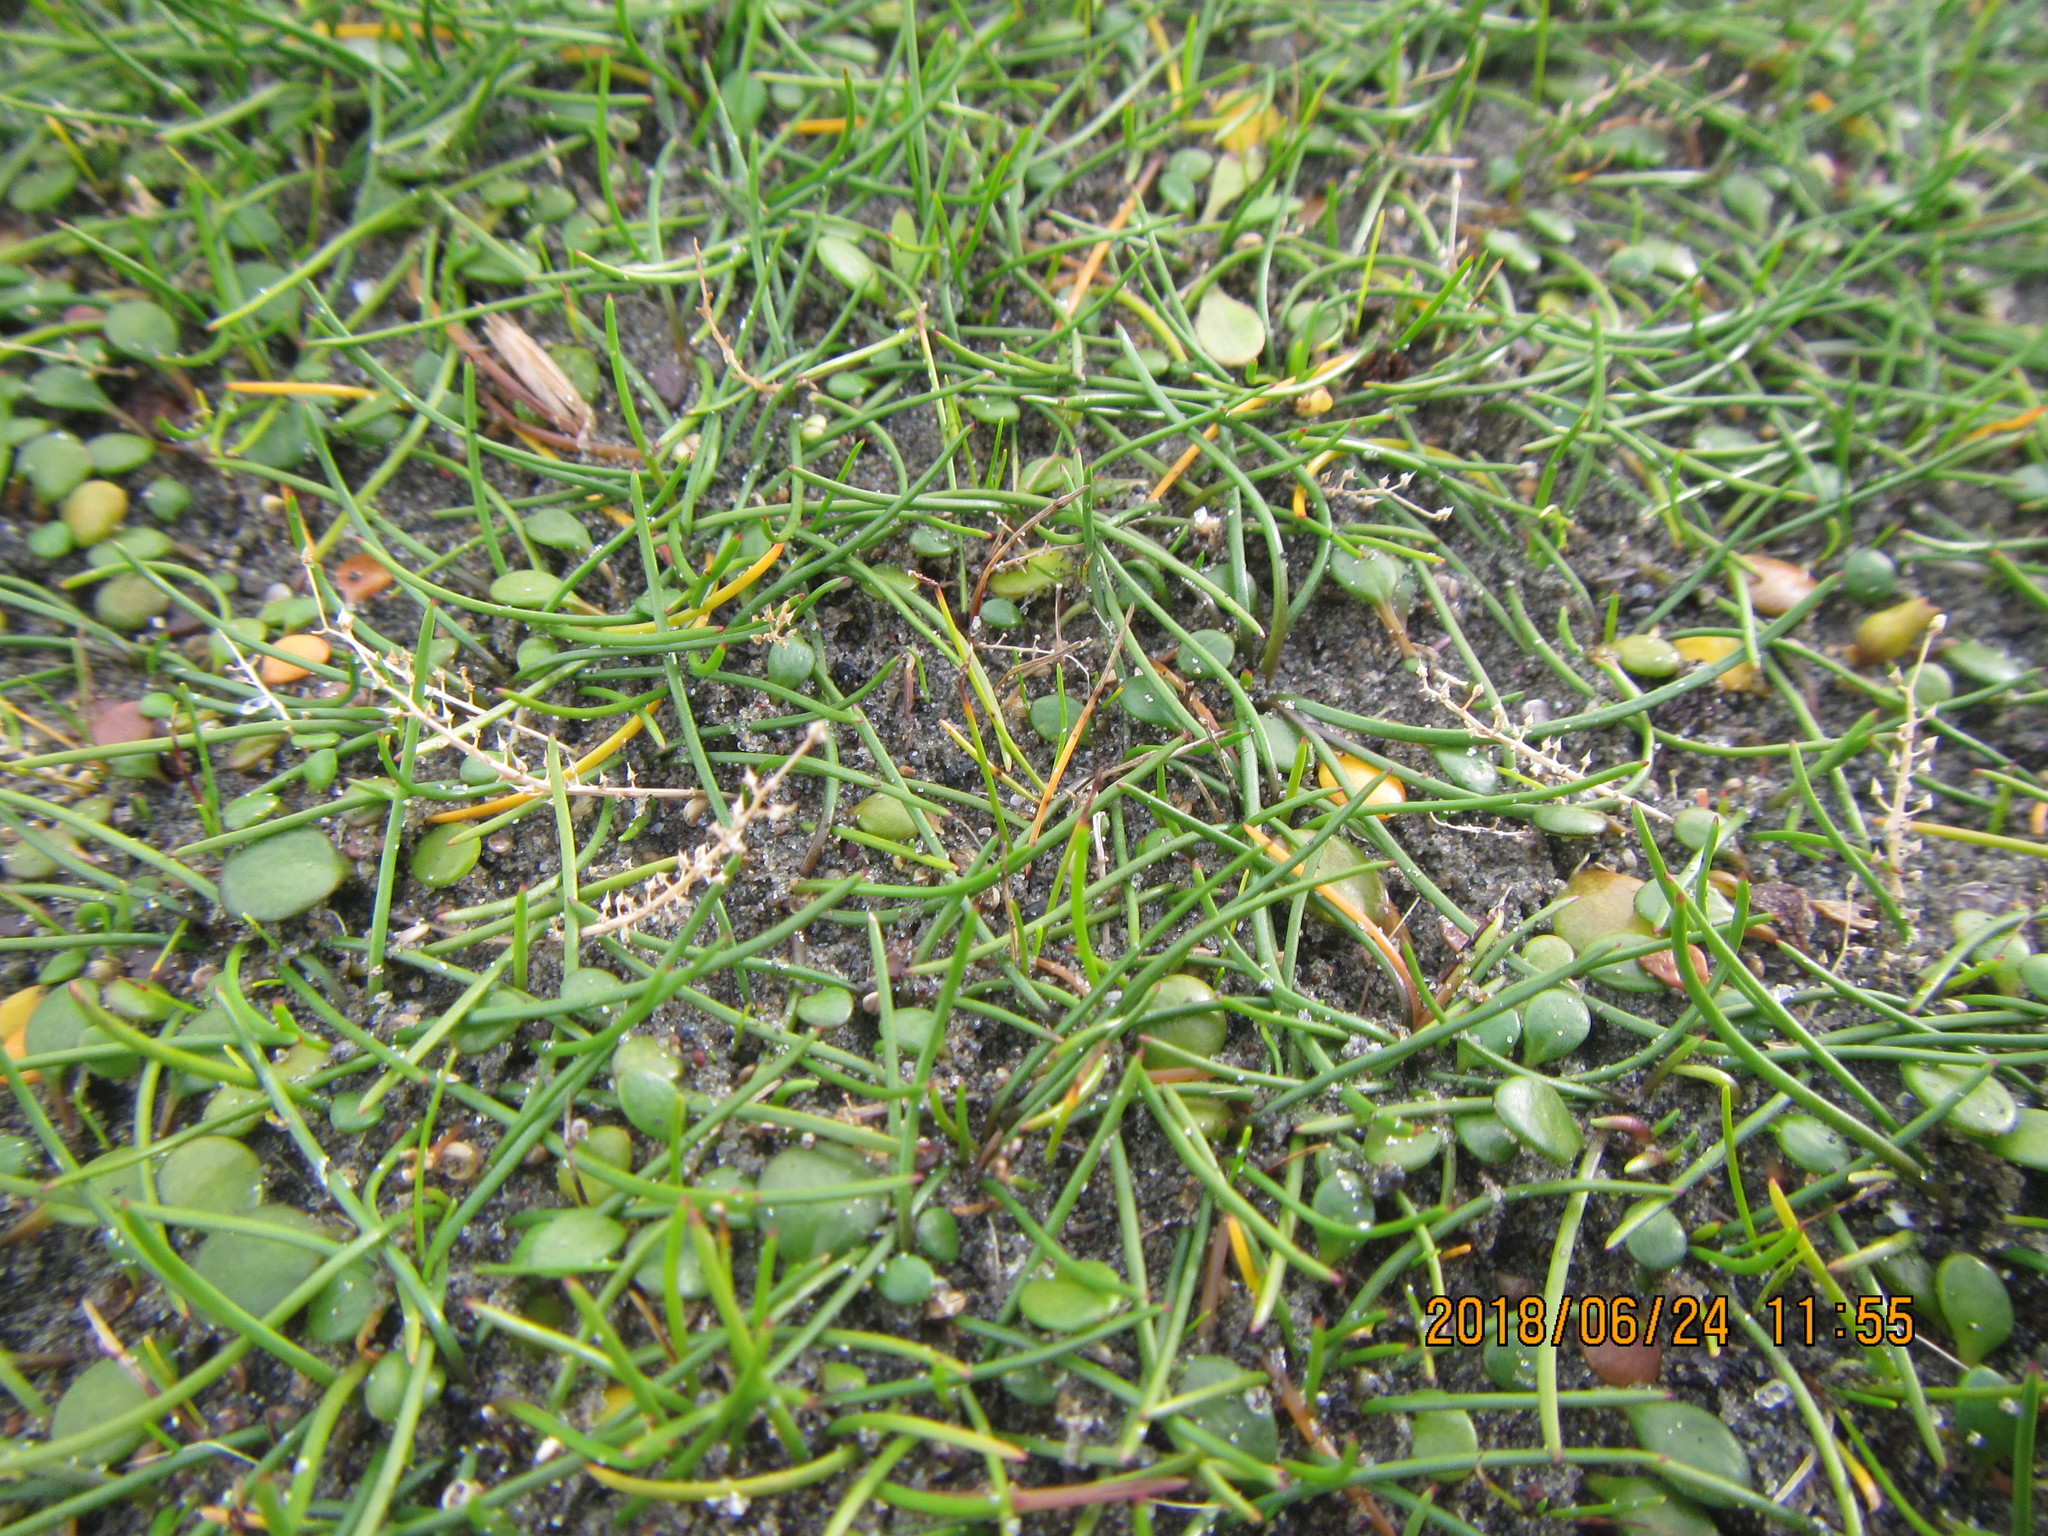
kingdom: Plantae
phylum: Tracheophyta
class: Liliopsida
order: Alismatales
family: Juncaginaceae
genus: Triglochin
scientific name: Triglochin striata
